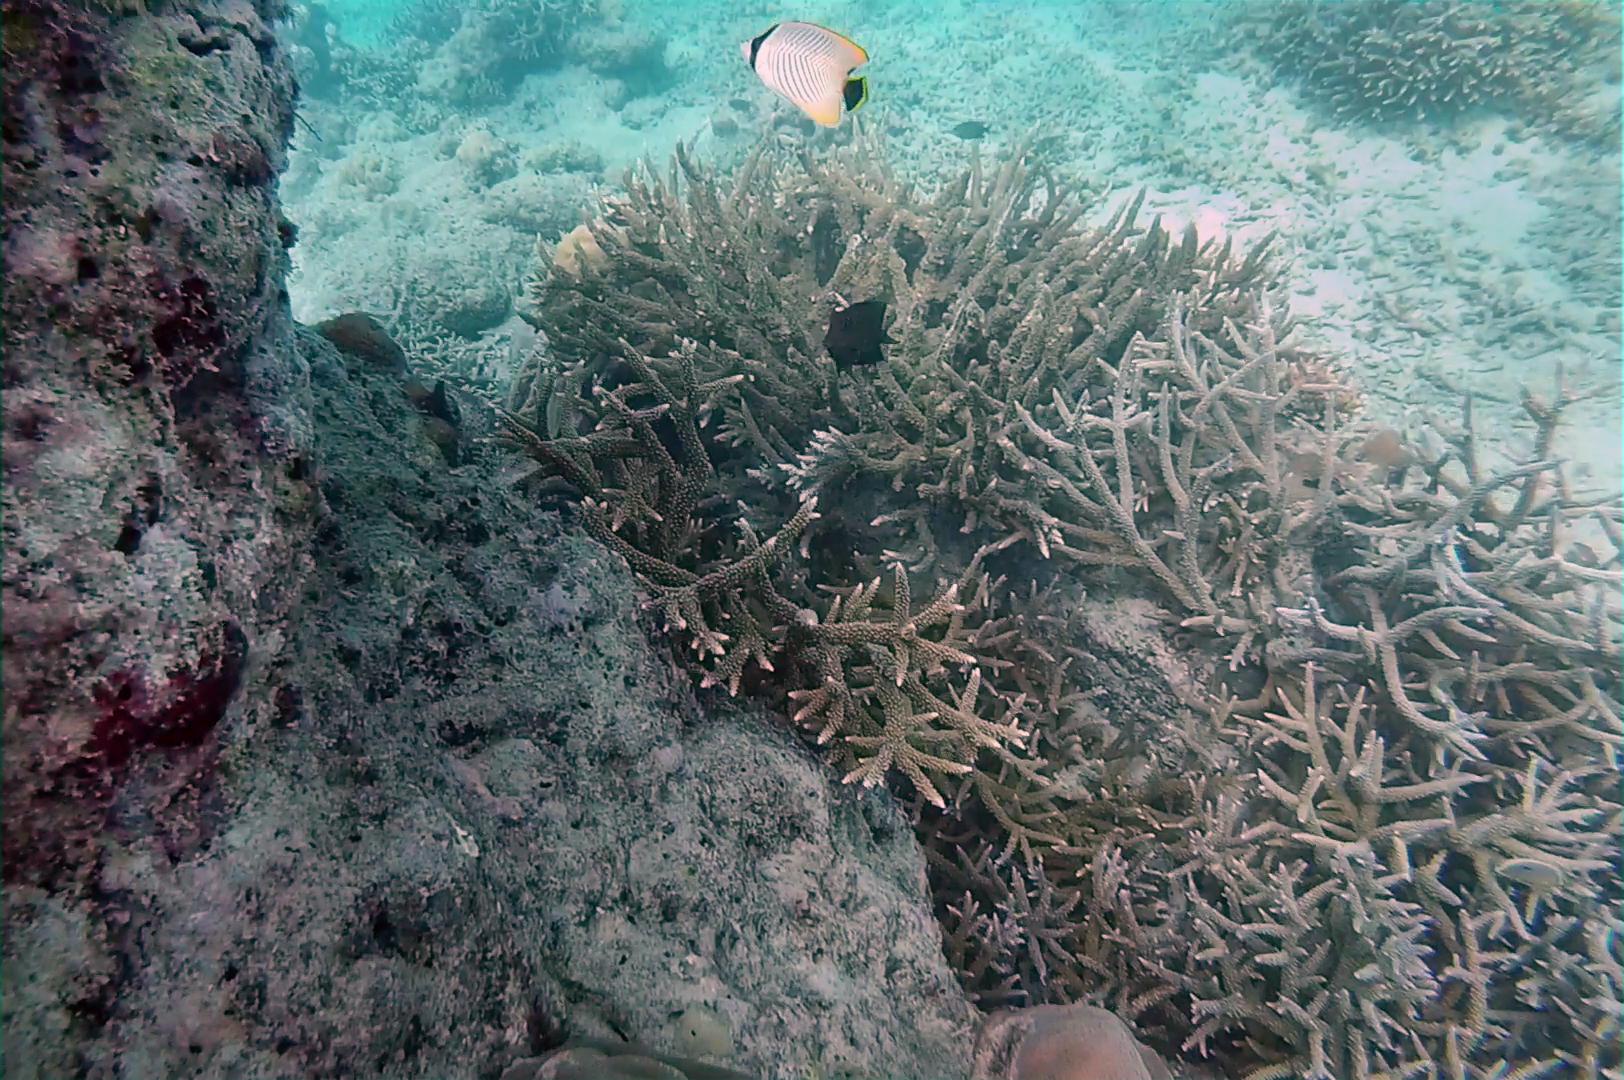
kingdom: Animalia
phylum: Chordata
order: Perciformes
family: Chaetodontidae
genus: Chaetodon
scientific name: Chaetodon trifascialis
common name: Chevroned butterflyfish
